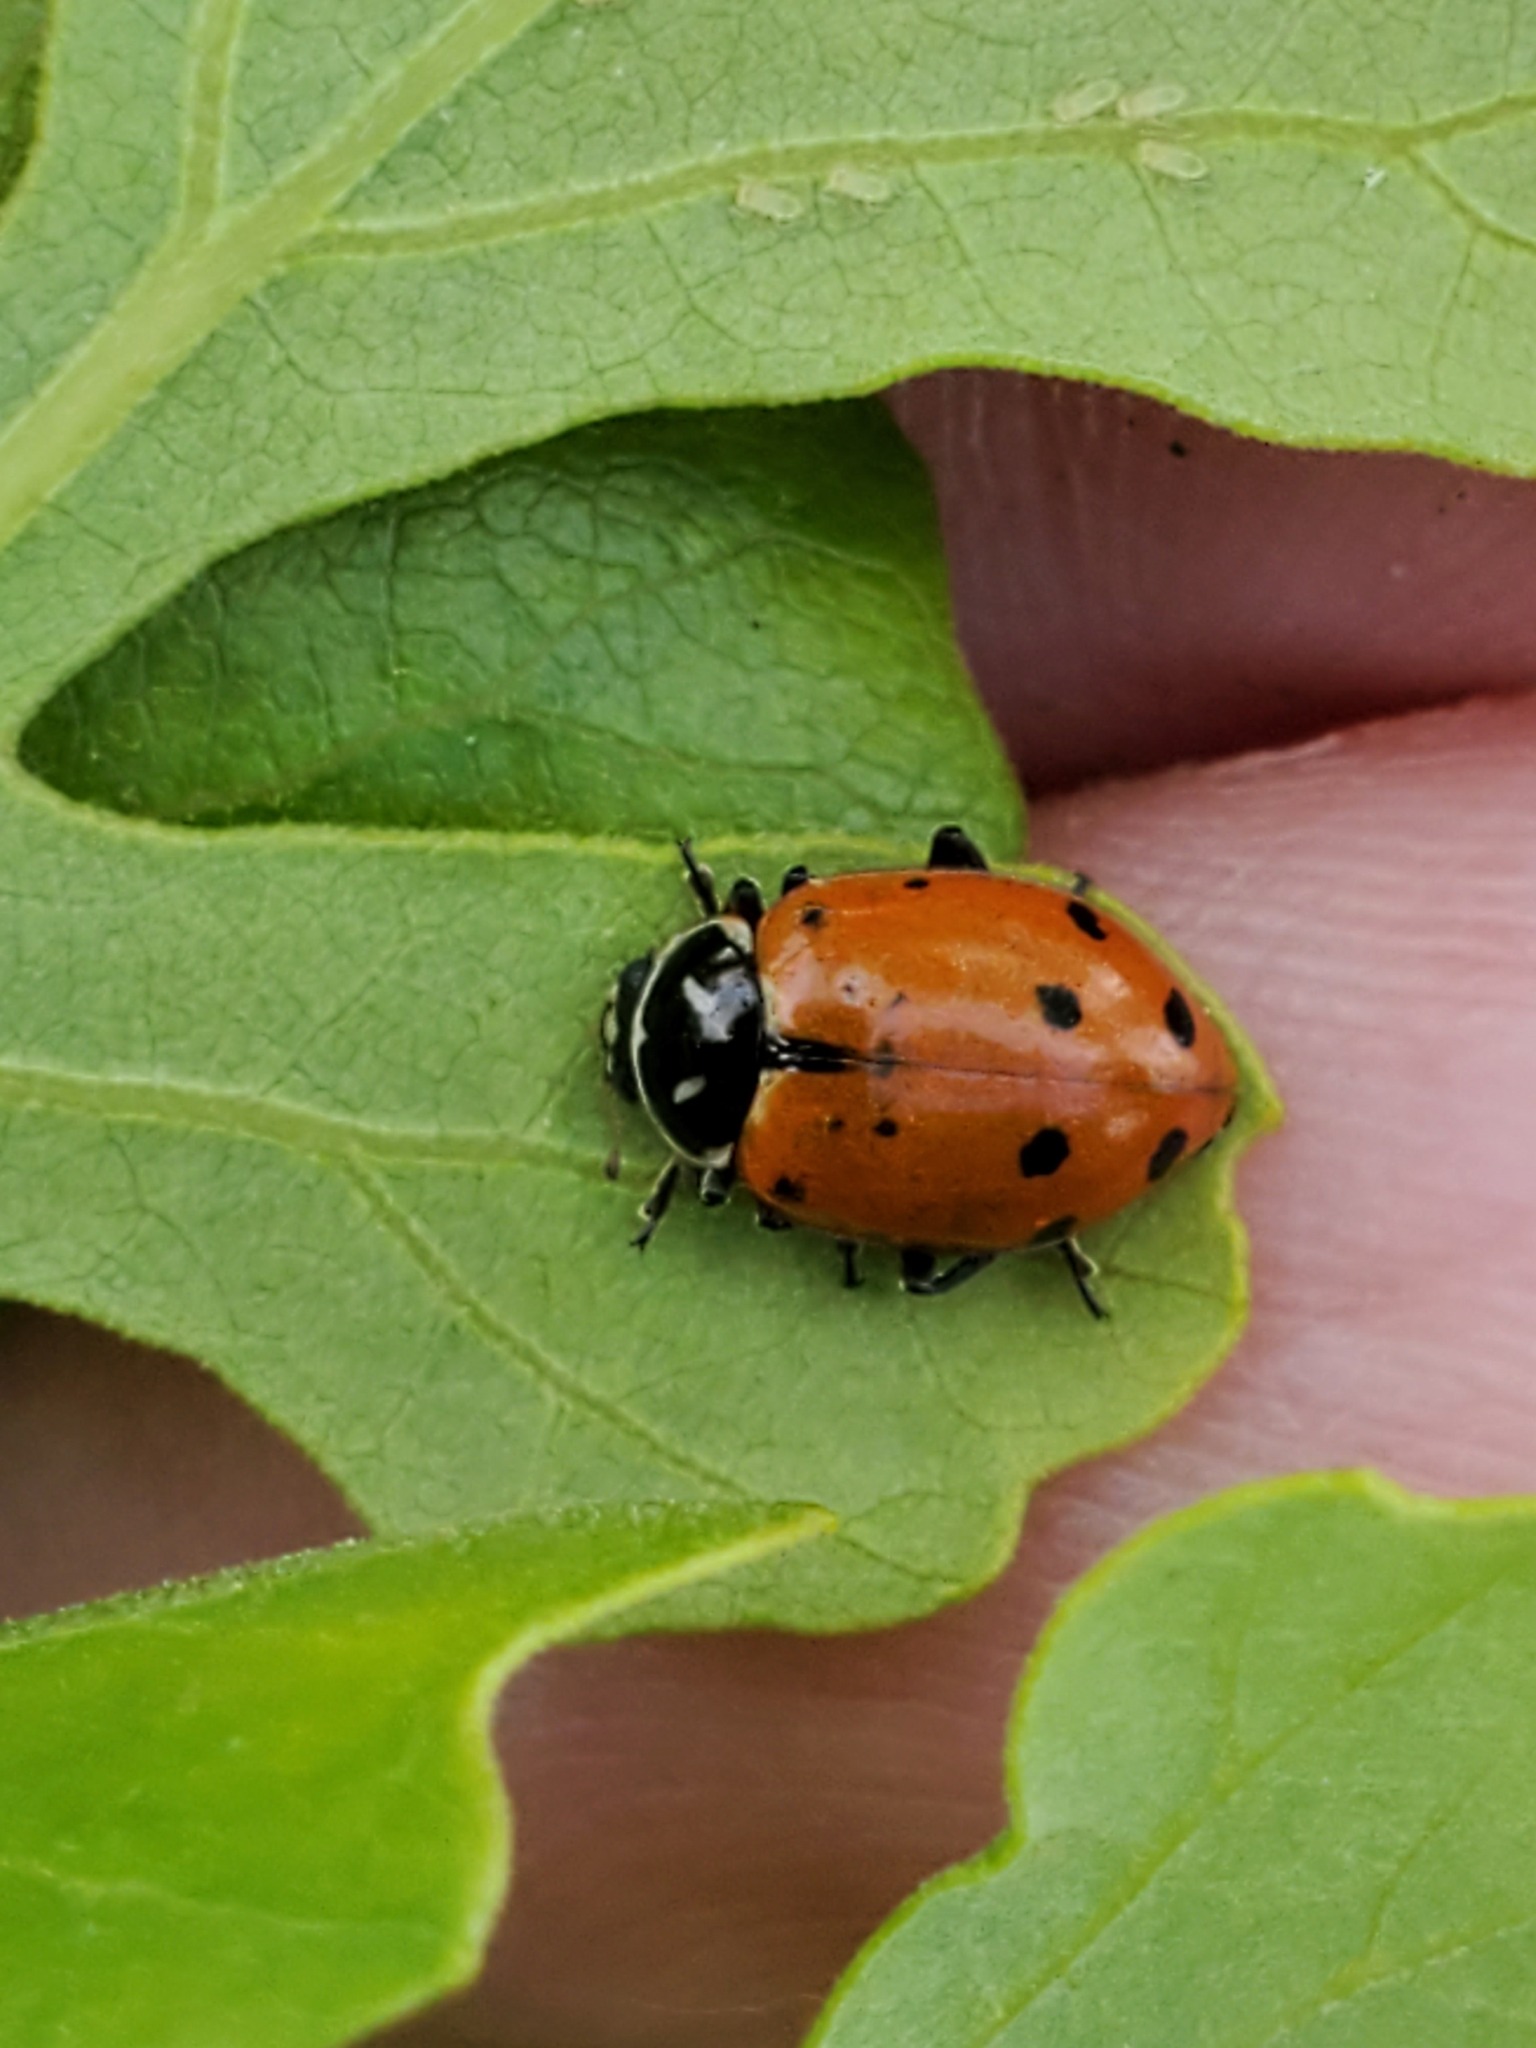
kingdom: Animalia
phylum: Arthropoda
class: Insecta
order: Coleoptera
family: Coccinellidae
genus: Hippodamia
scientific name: Hippodamia convergens
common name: Convergent lady beetle
